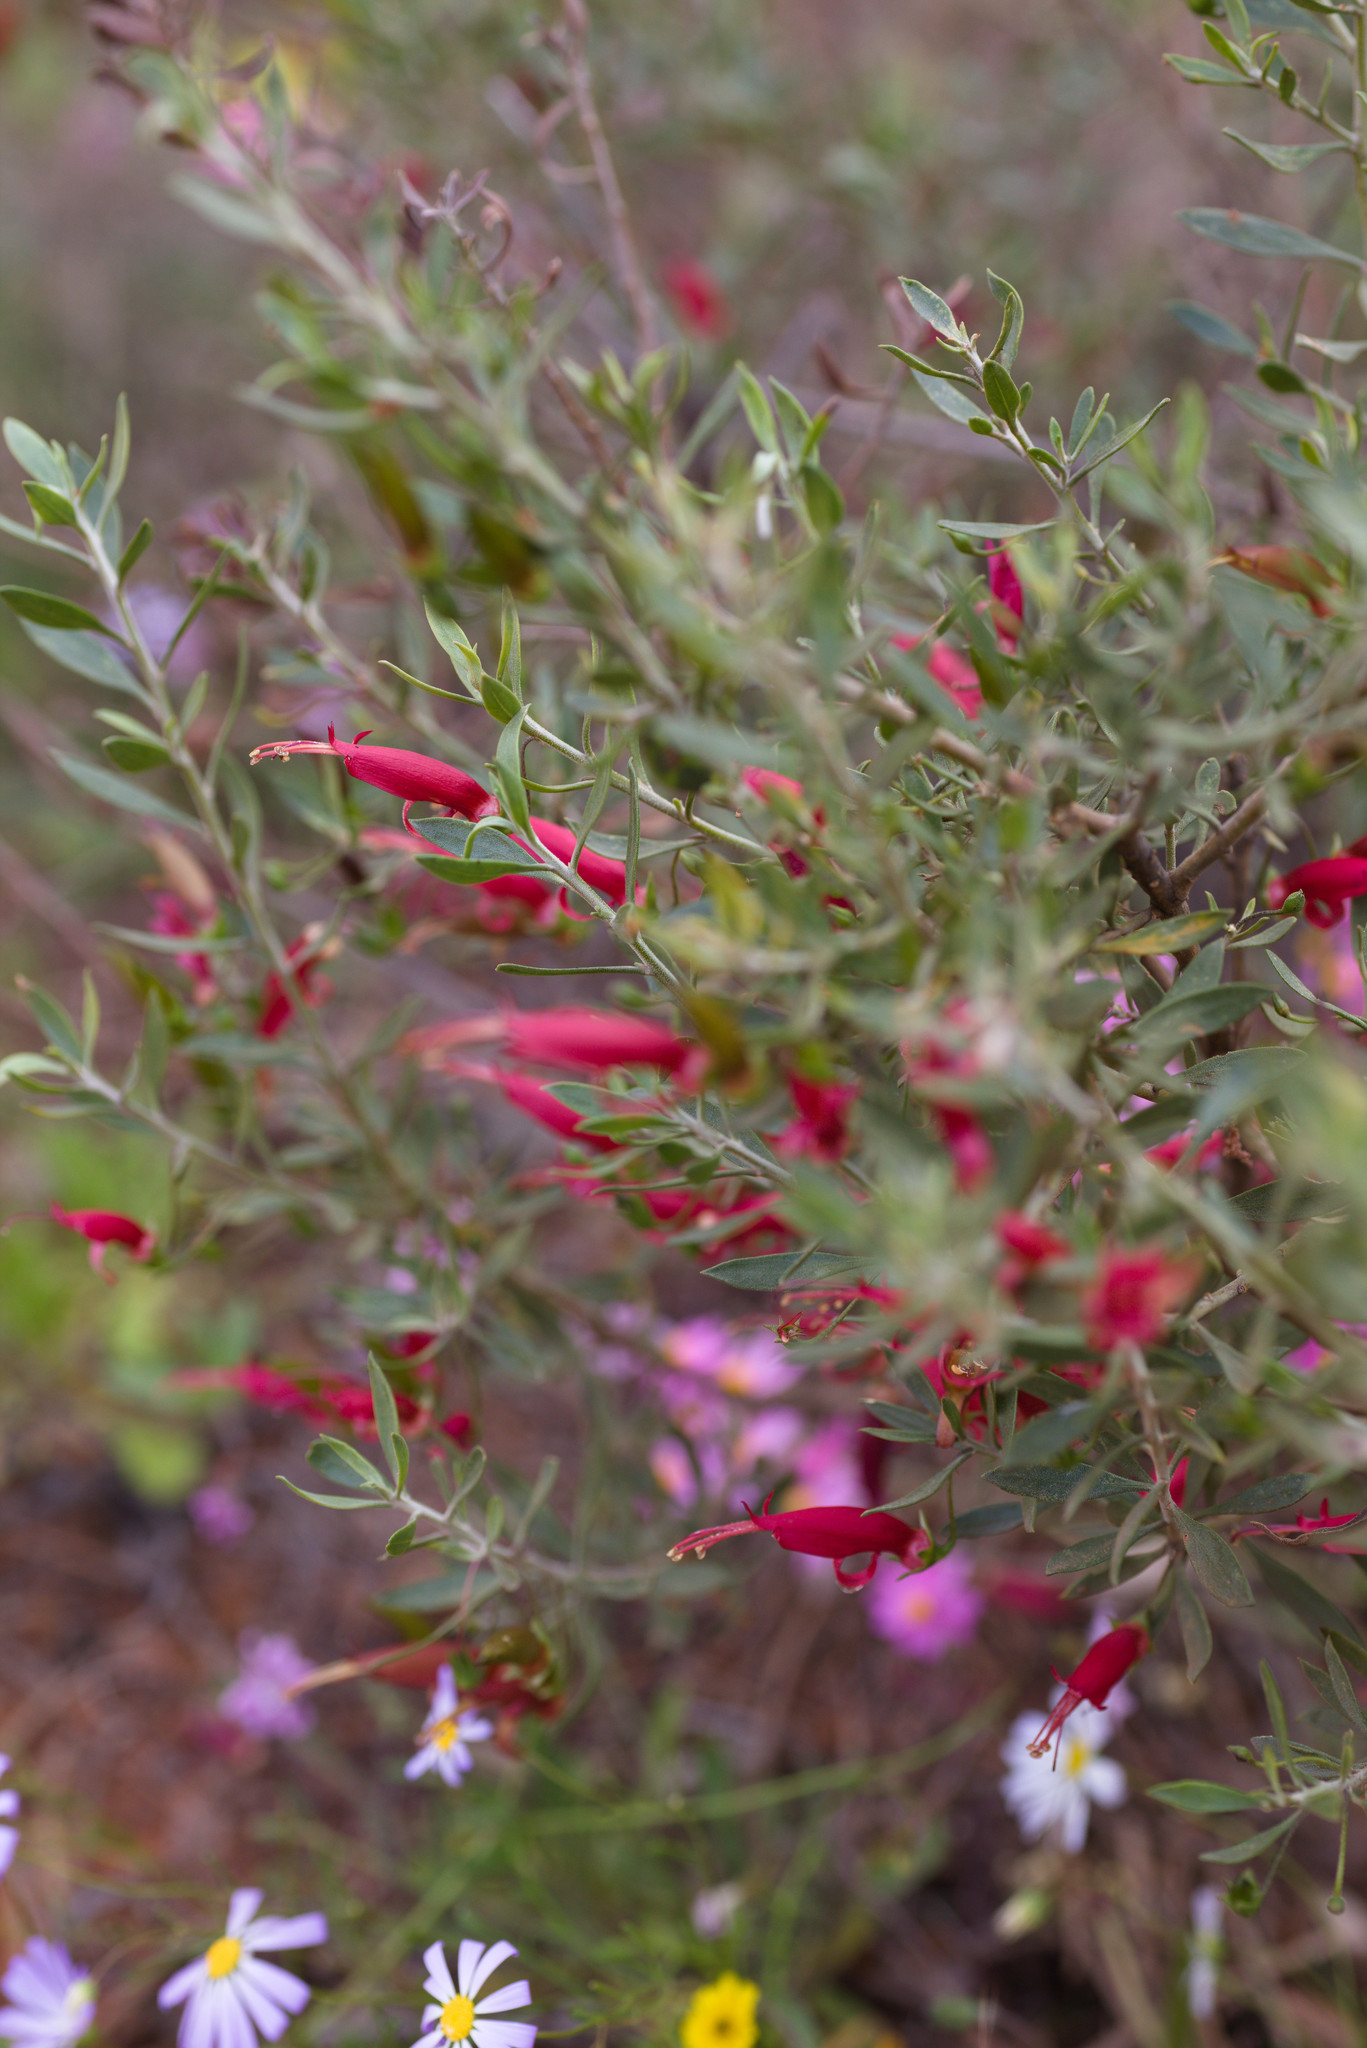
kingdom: Plantae
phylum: Tracheophyta
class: Magnoliopsida
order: Lamiales
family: Scrophulariaceae
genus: Eremophila
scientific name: Eremophila decipiens
